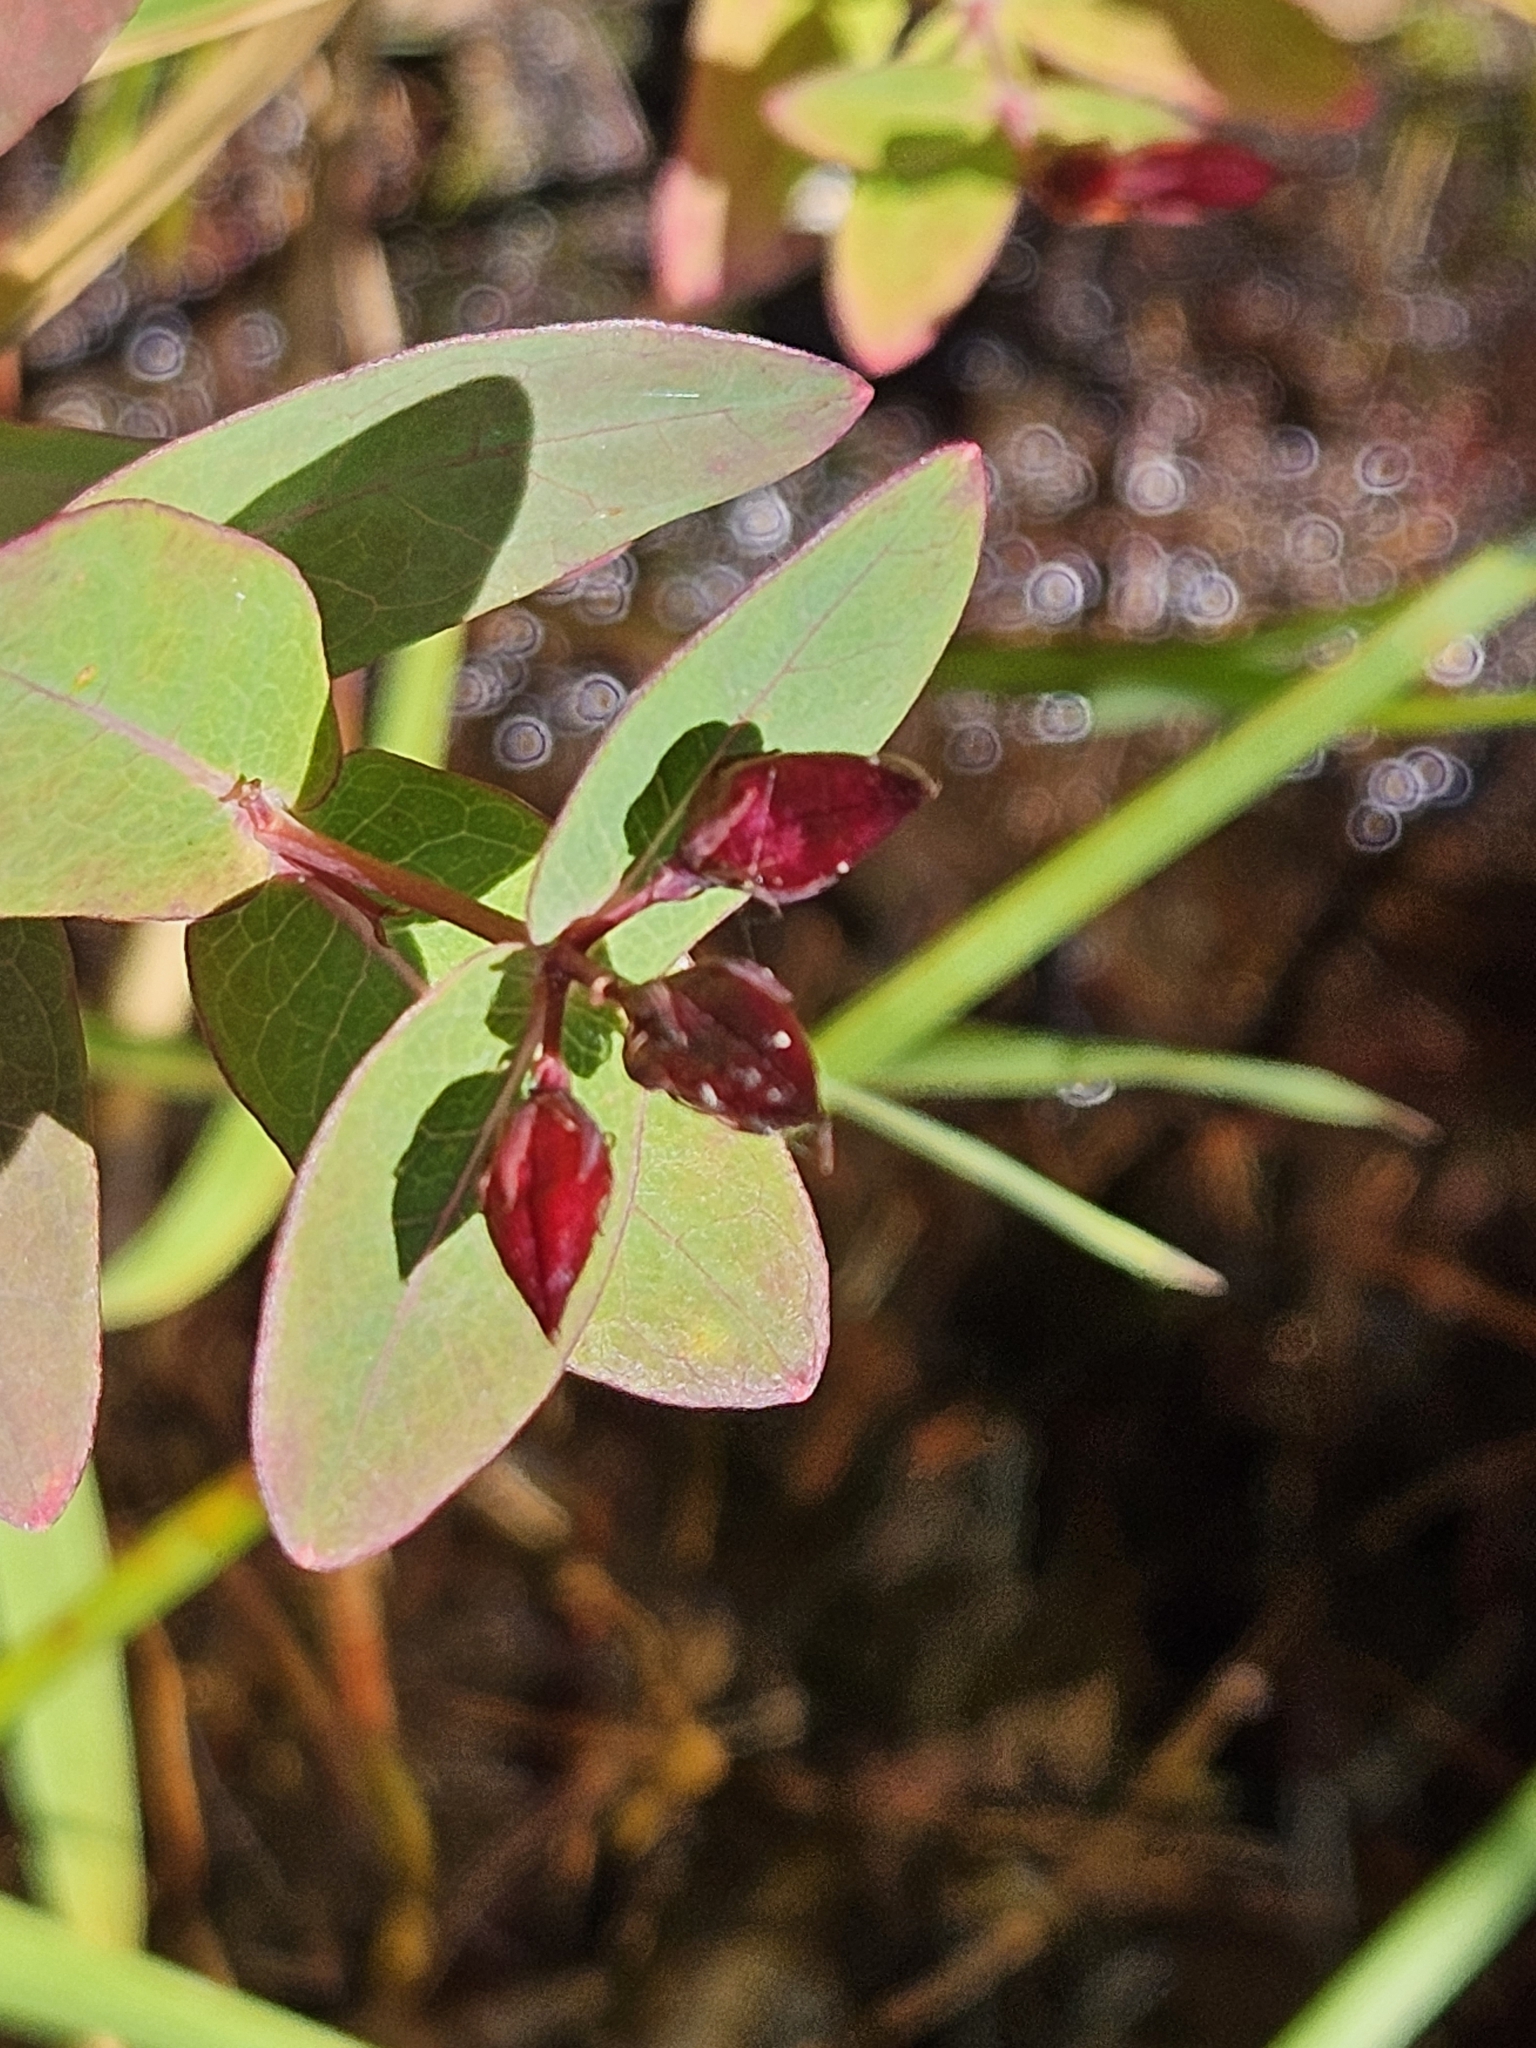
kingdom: Plantae
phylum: Tracheophyta
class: Magnoliopsida
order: Malpighiales
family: Hypericaceae
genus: Triadenum
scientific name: Triadenum virginicum
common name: Marsh st. john's-wort
